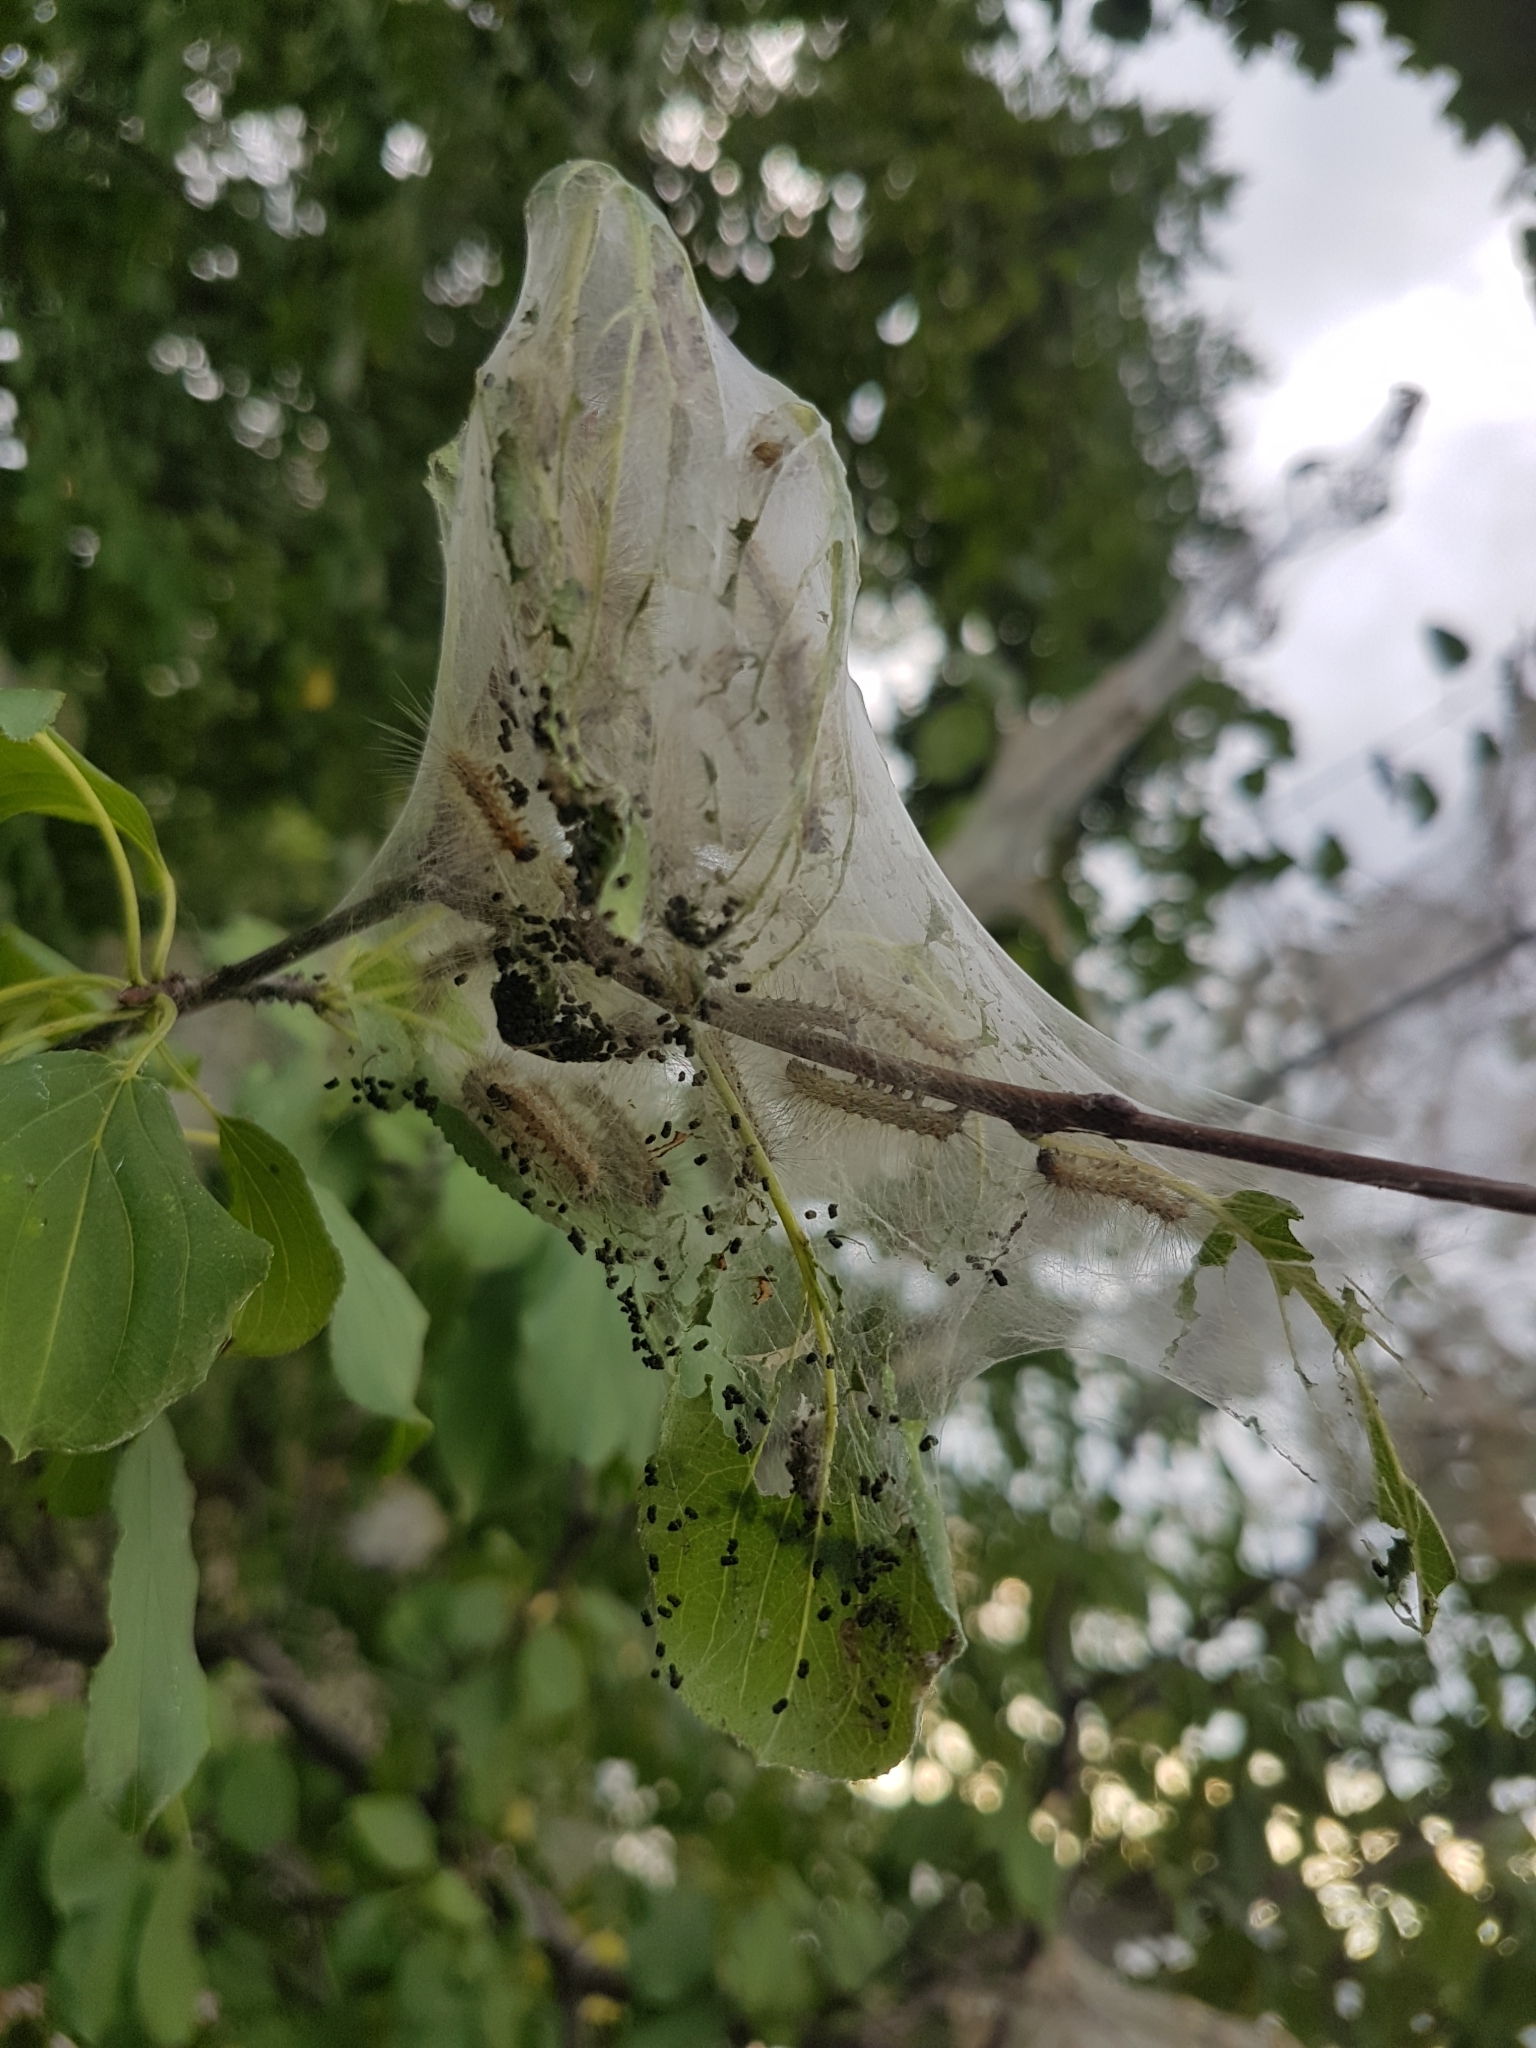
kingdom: Animalia
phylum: Arthropoda
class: Insecta
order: Lepidoptera
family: Erebidae
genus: Hyphantria
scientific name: Hyphantria cunea
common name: American white moth
